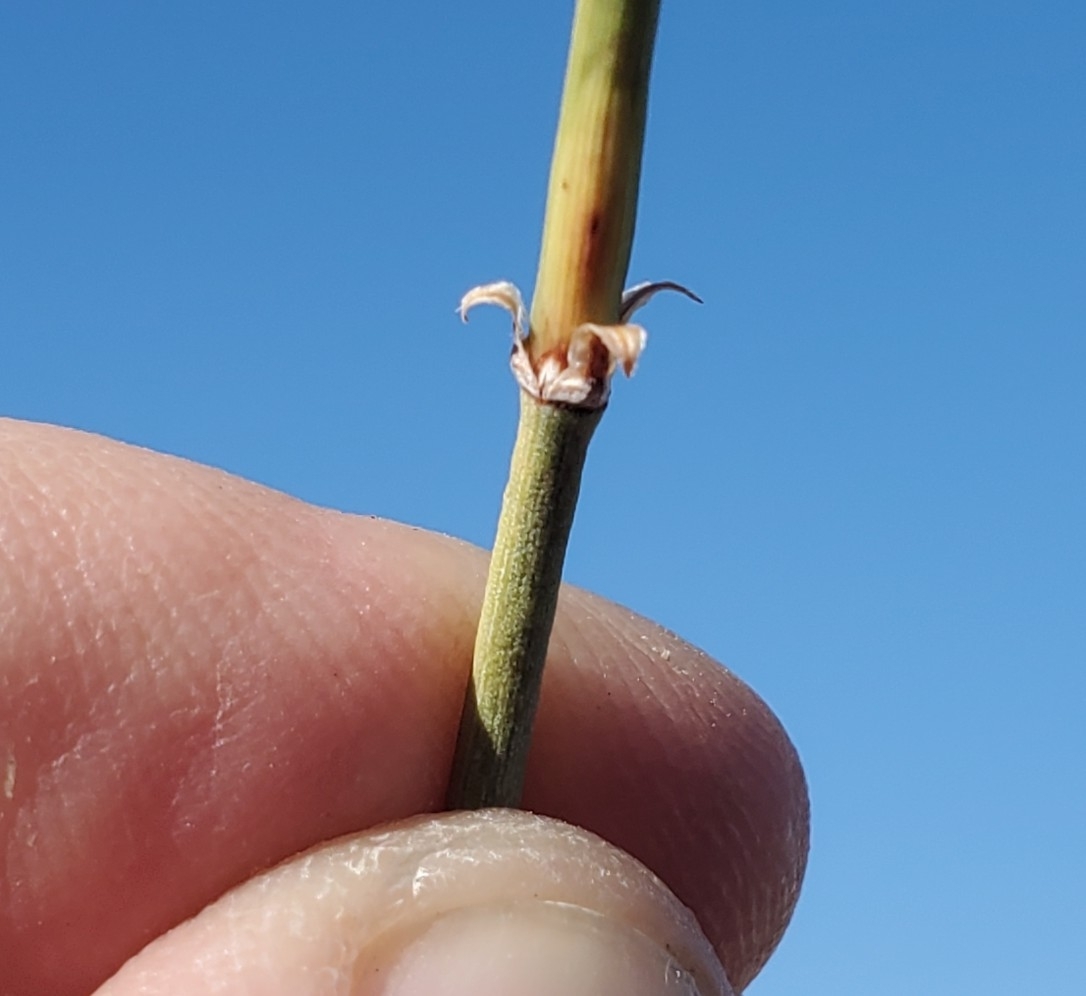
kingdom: Plantae
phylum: Tracheophyta
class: Gnetopsida
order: Ephedrales
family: Ephedraceae
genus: Ephedra
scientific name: Ephedra californica
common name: California ephedra
